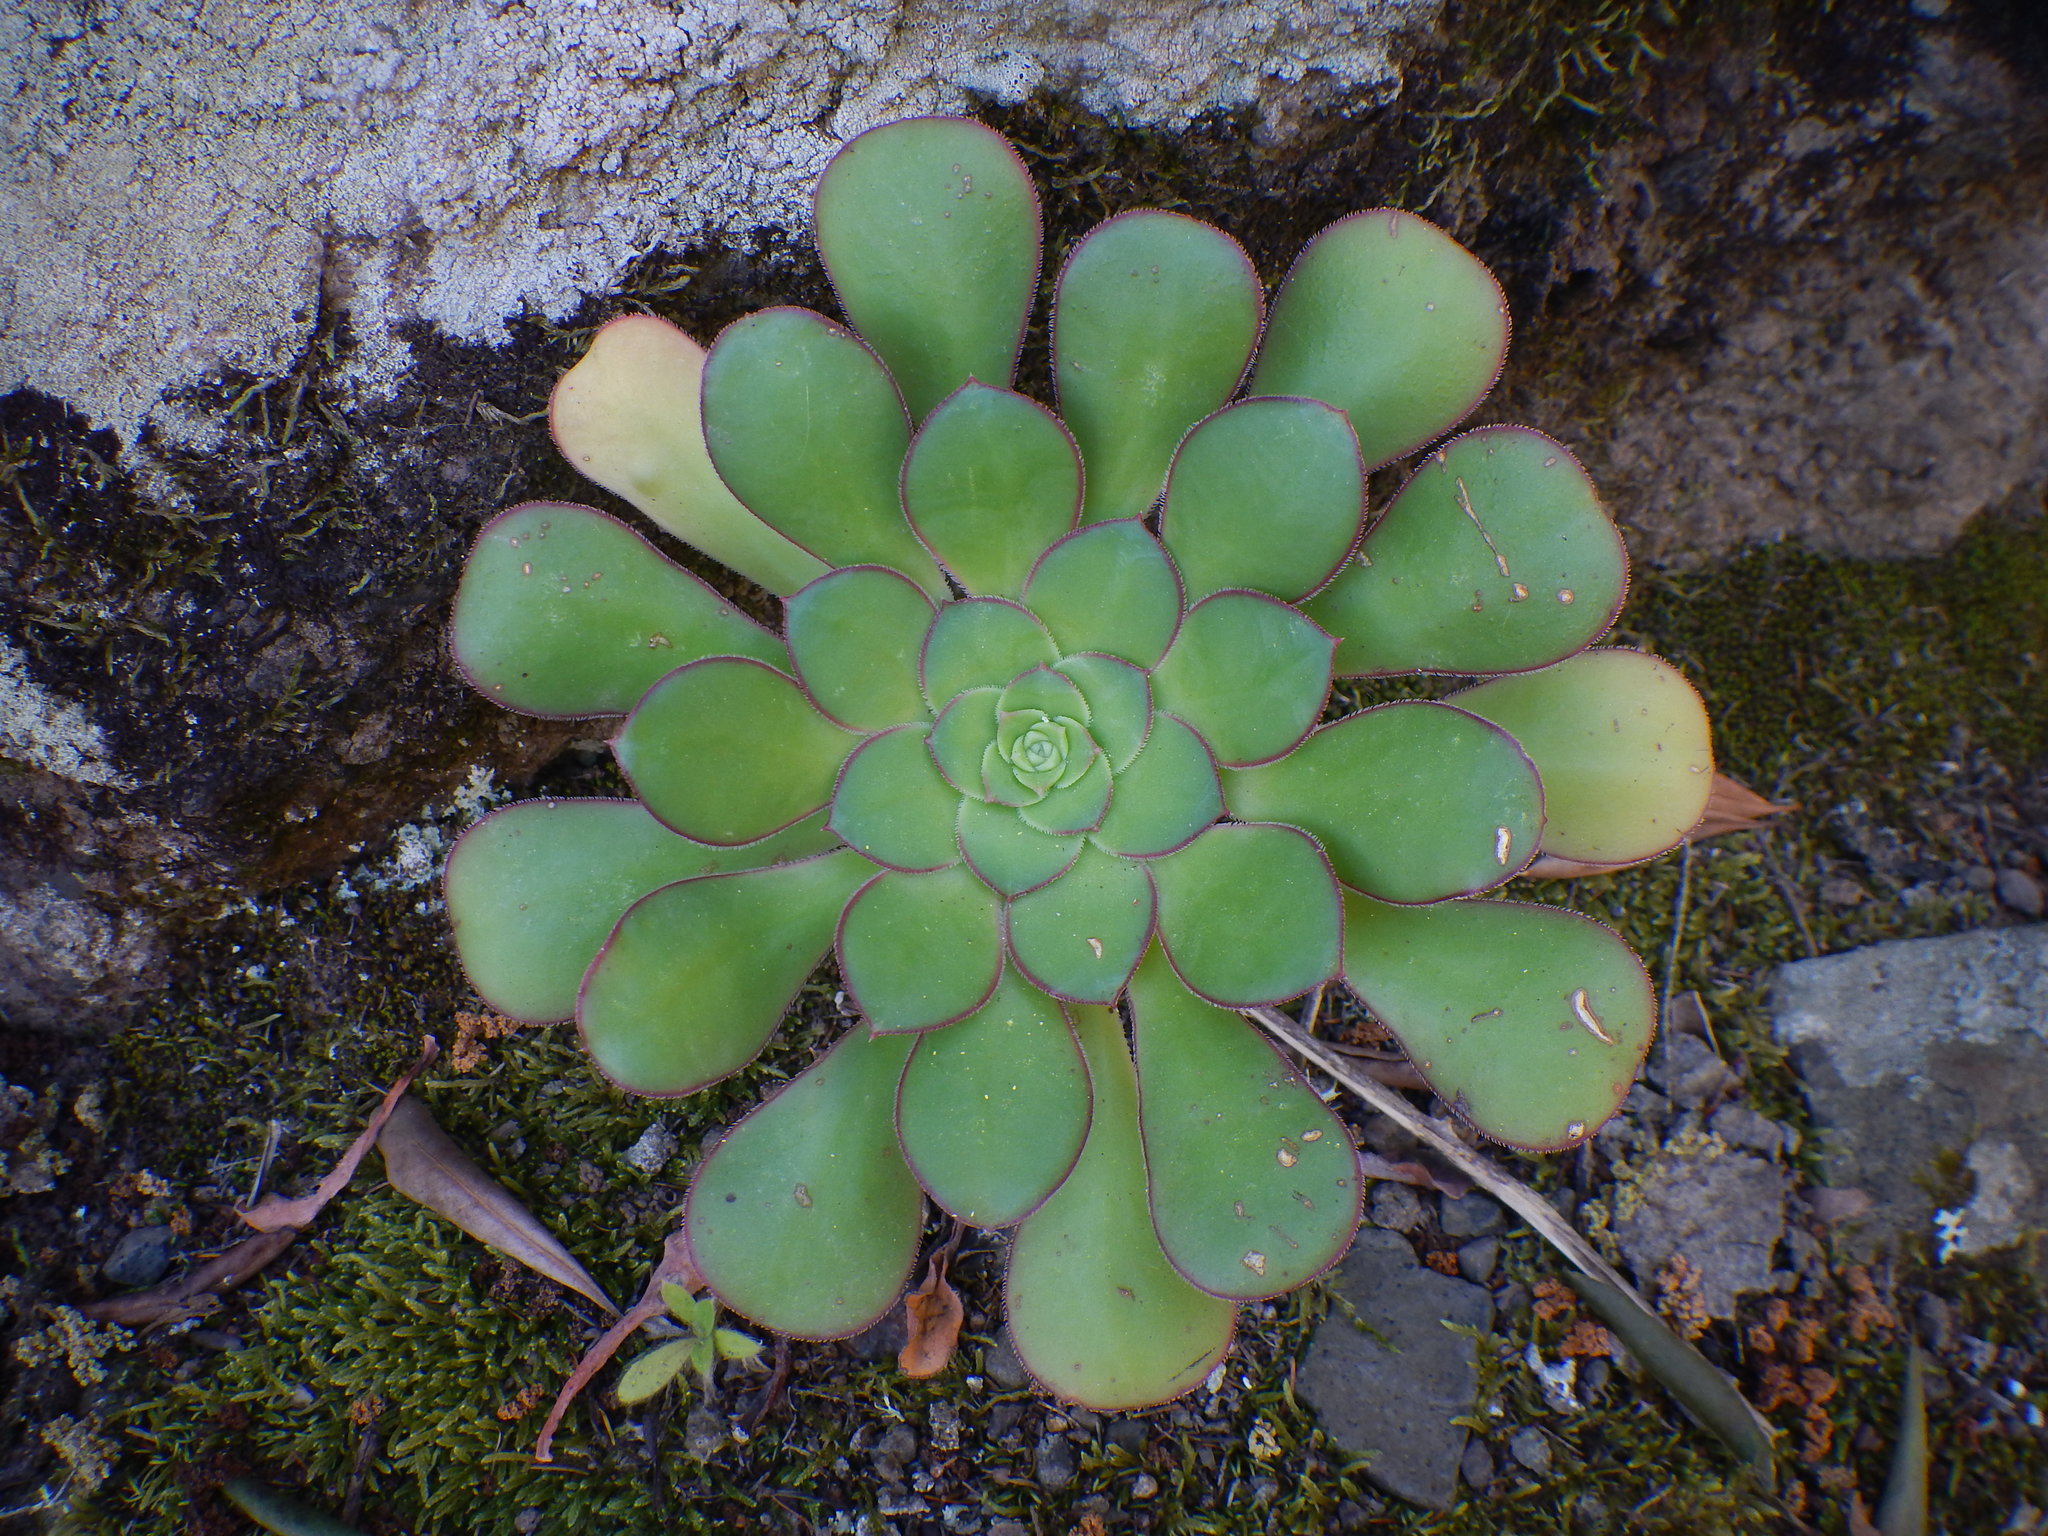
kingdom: Plantae
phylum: Tracheophyta
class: Magnoliopsida
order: Saxifragales
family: Crassulaceae
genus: Aeonium
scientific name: Aeonium ciliatum
